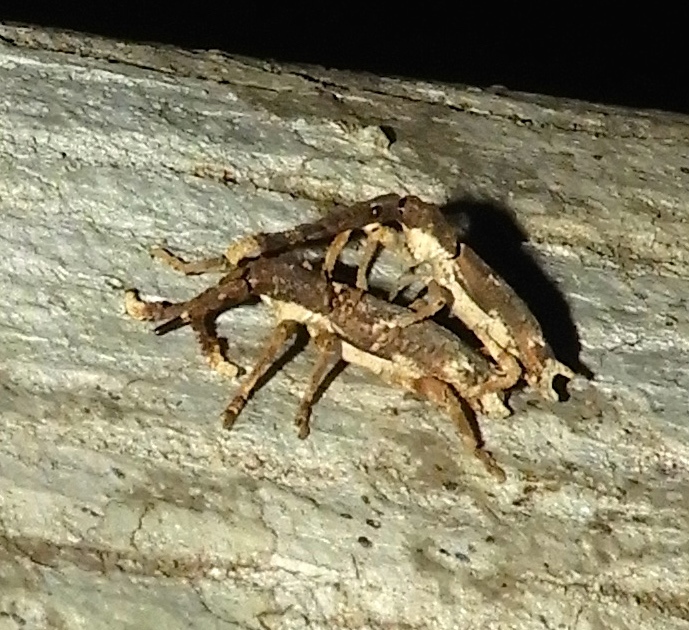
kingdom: Animalia
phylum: Arthropoda
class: Insecta
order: Coleoptera
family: Brentidae
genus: Ulocerus
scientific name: Ulocerus mexicanus
